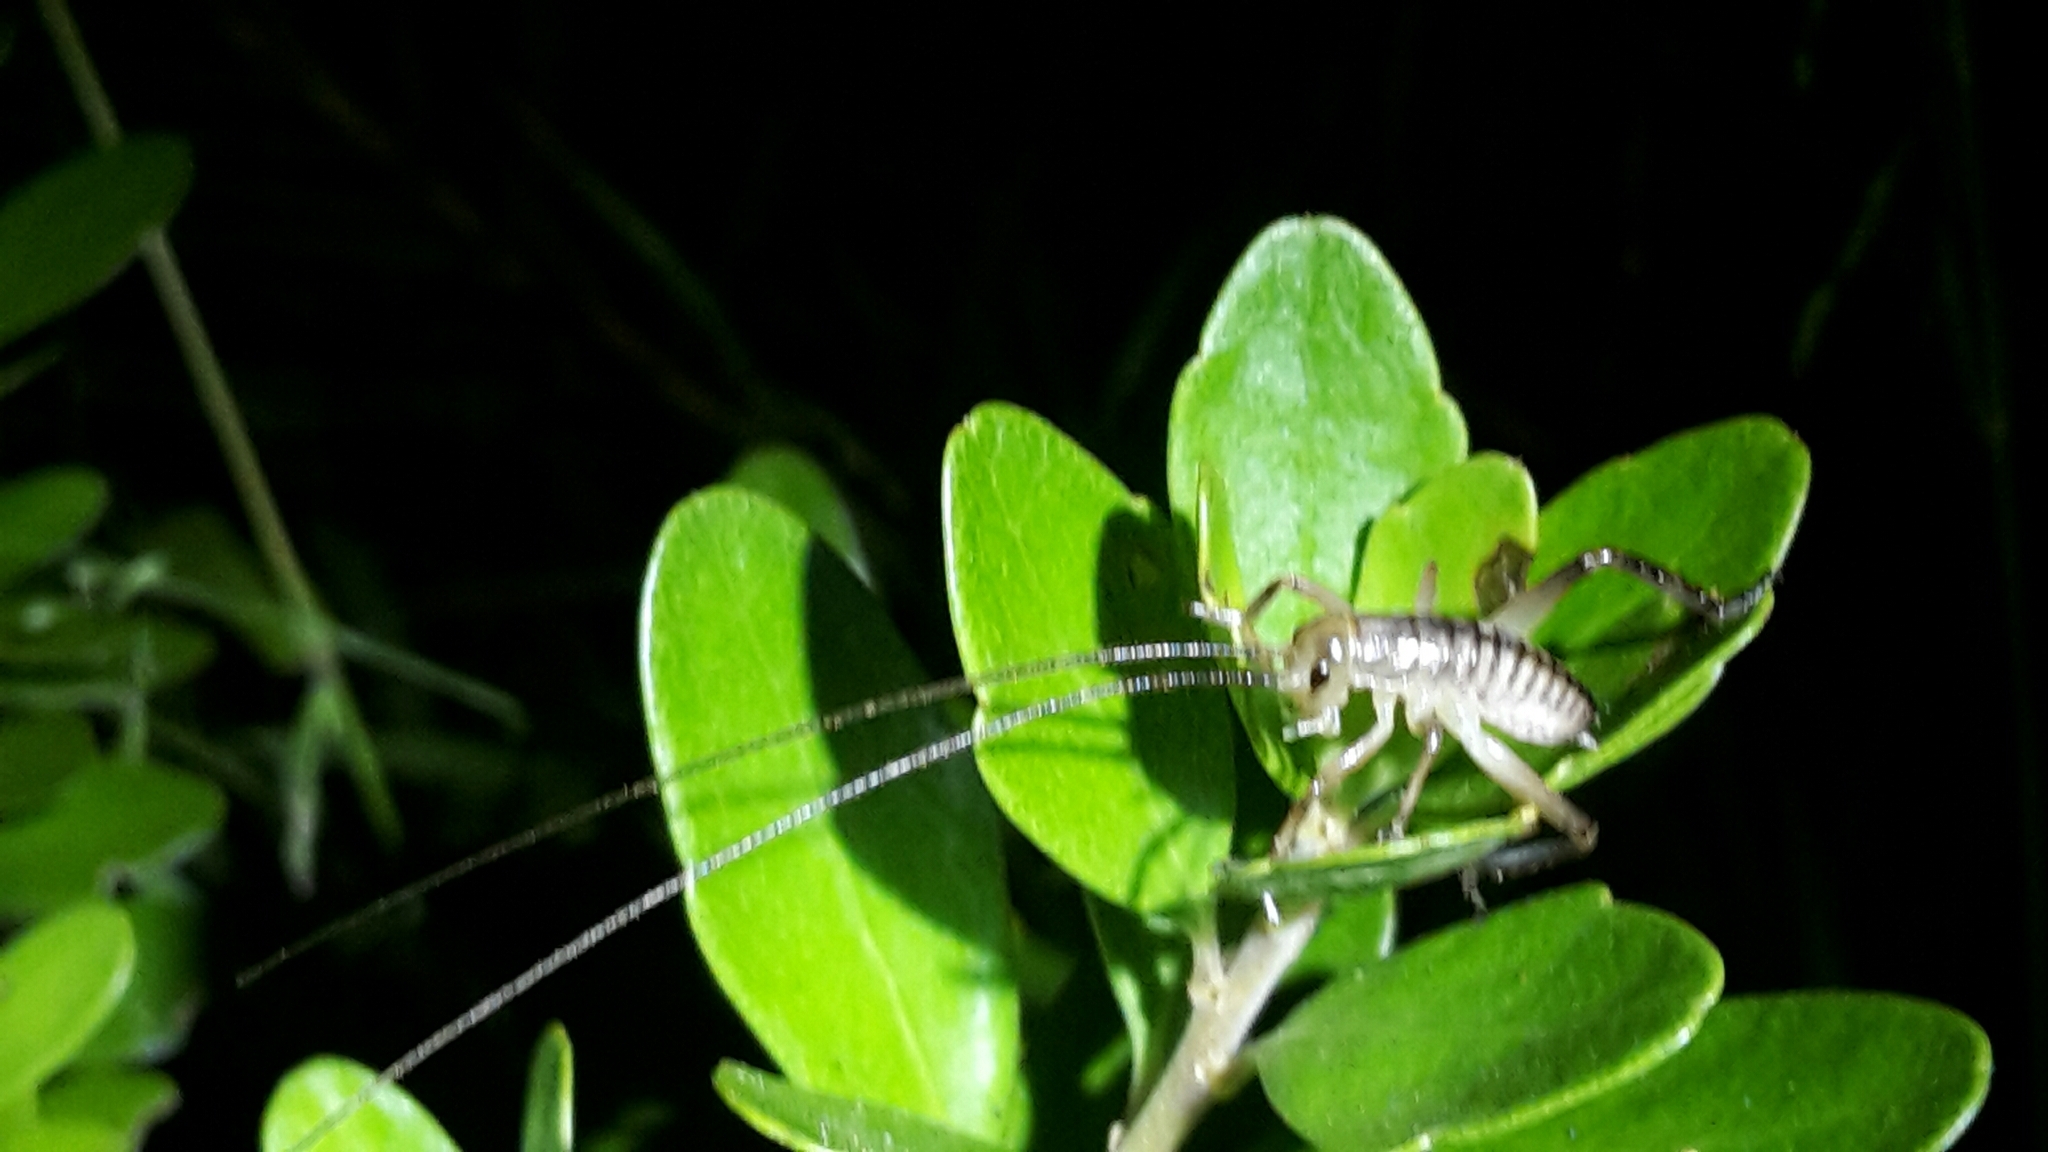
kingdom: Animalia
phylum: Arthropoda
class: Insecta
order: Orthoptera
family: Anostostomatidae
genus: Hemideina
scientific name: Hemideina crassidens
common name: Wellington tree weta
